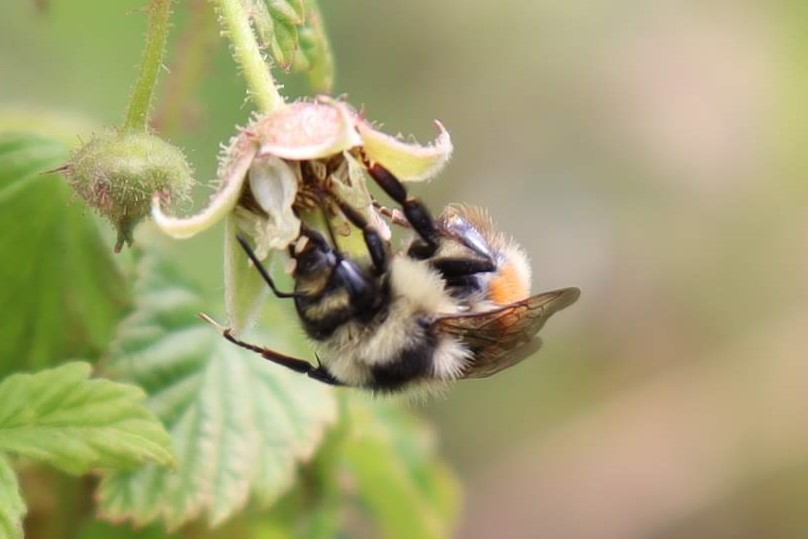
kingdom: Animalia
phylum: Arthropoda
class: Insecta
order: Hymenoptera
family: Apidae
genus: Pyrobombus
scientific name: Pyrobombus
